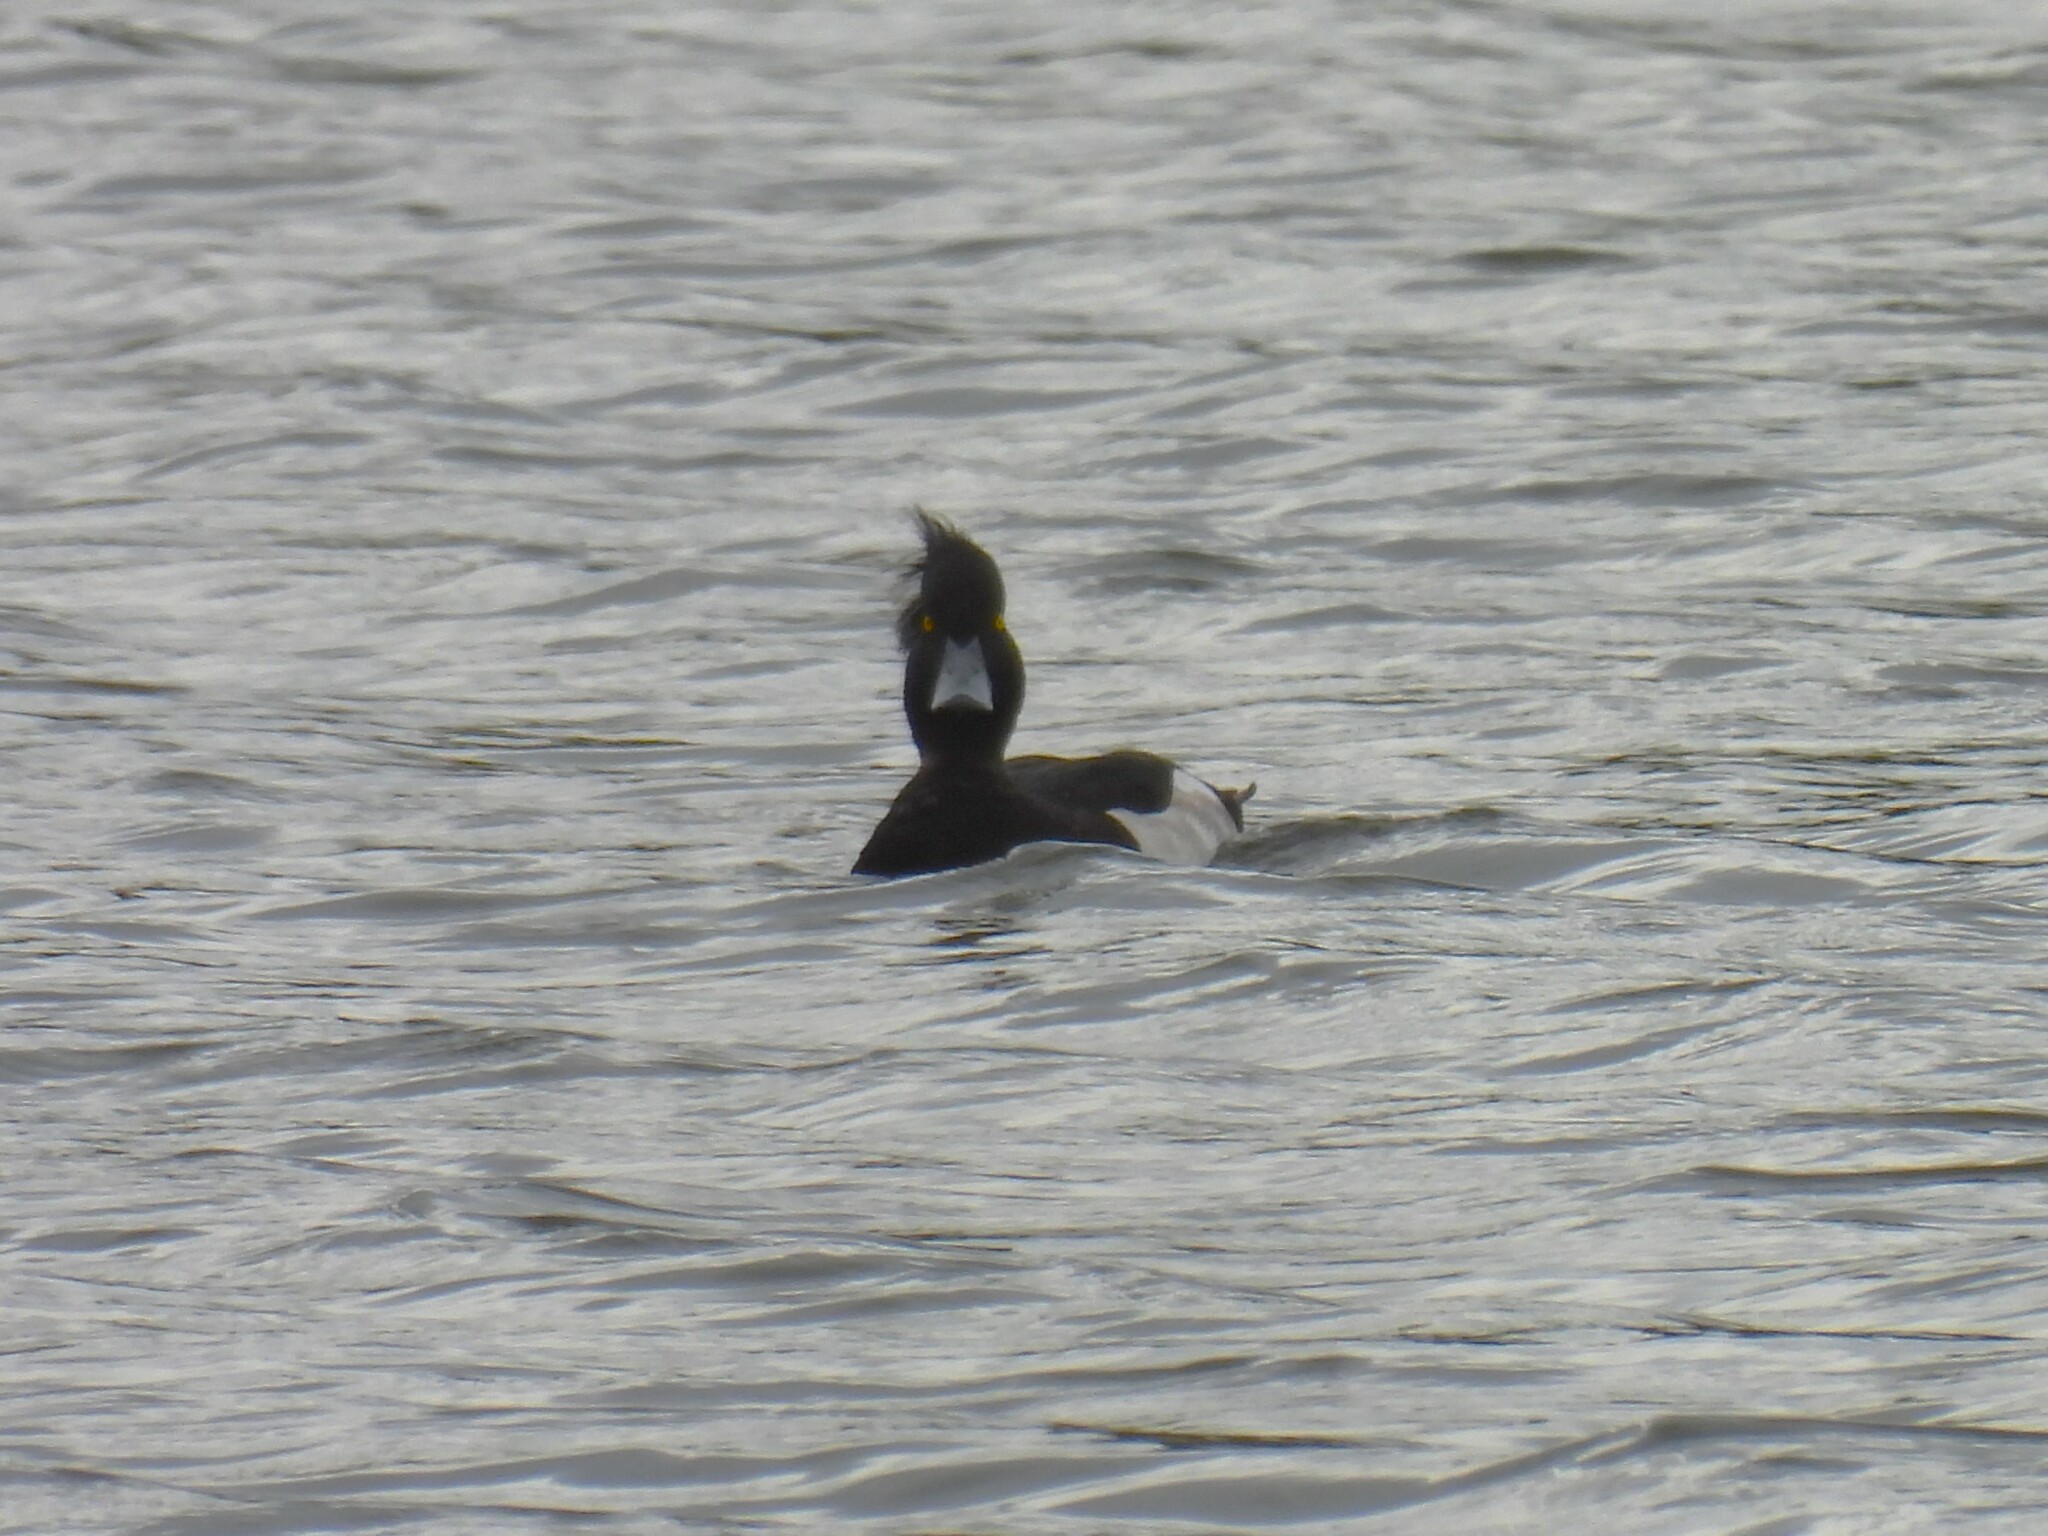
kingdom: Animalia
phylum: Chordata
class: Aves
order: Anseriformes
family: Anatidae
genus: Aythya
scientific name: Aythya fuligula
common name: Tufted duck
